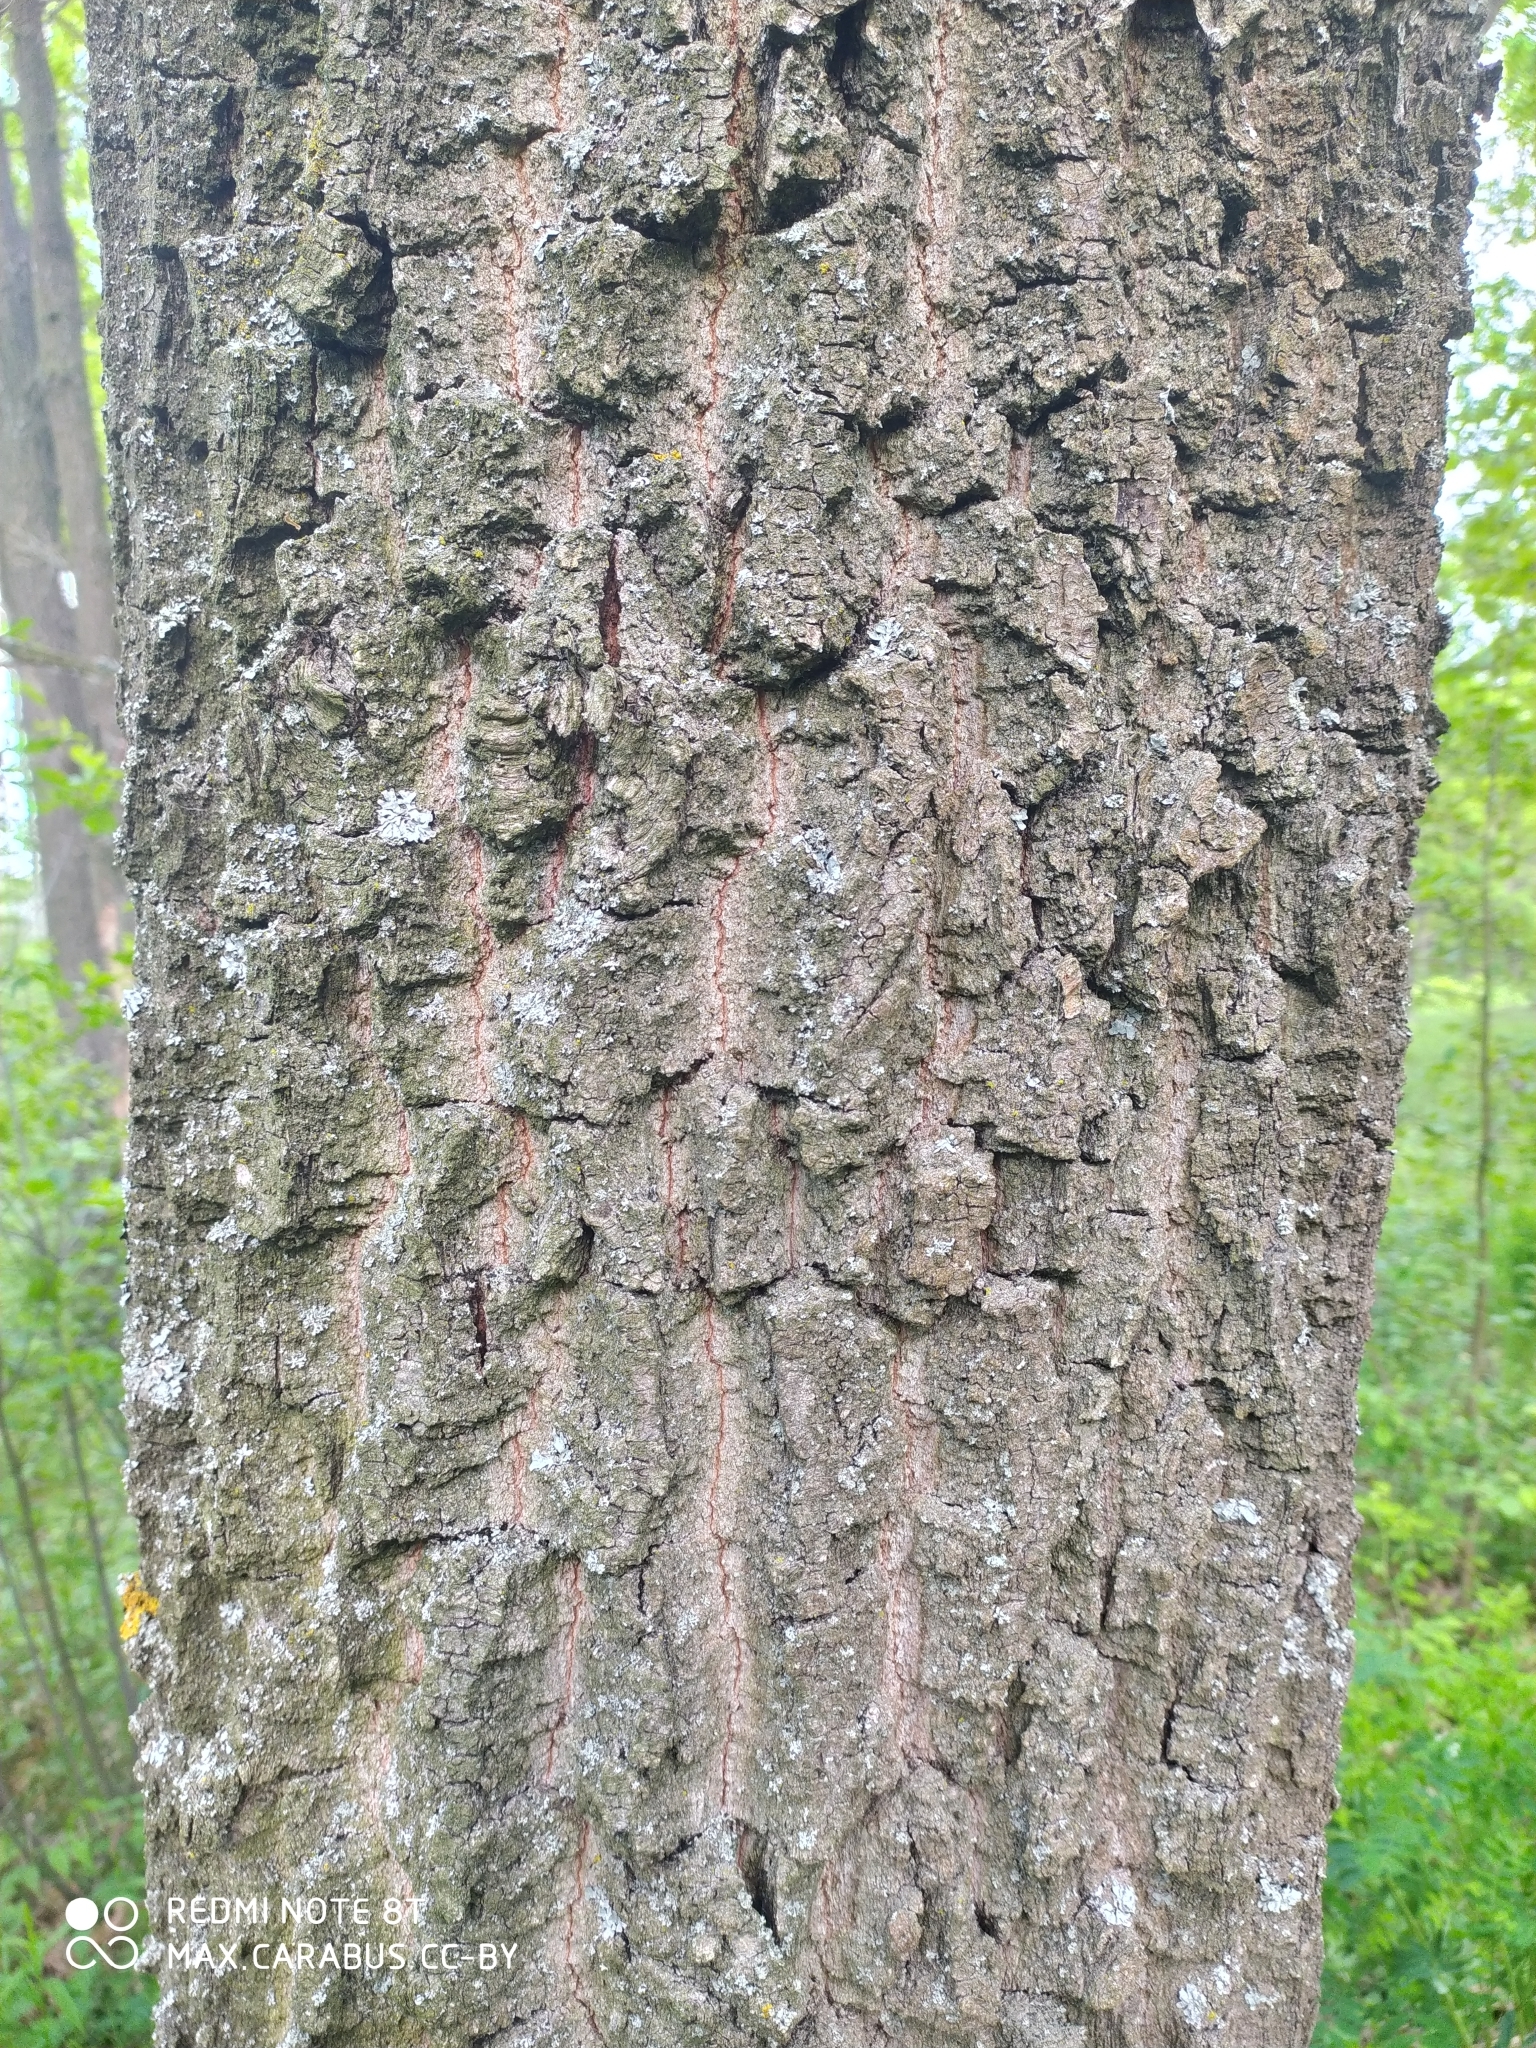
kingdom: Plantae
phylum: Tracheophyta
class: Magnoliopsida
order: Fagales
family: Fagaceae
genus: Quercus
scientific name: Quercus robur
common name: Pedunculate oak
